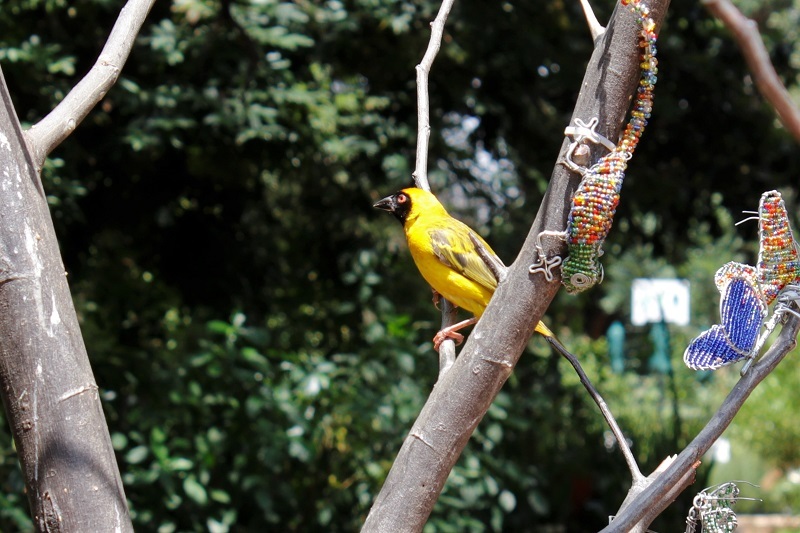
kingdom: Animalia
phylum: Chordata
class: Aves
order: Passeriformes
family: Ploceidae
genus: Ploceus
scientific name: Ploceus velatus
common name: Southern masked weaver
